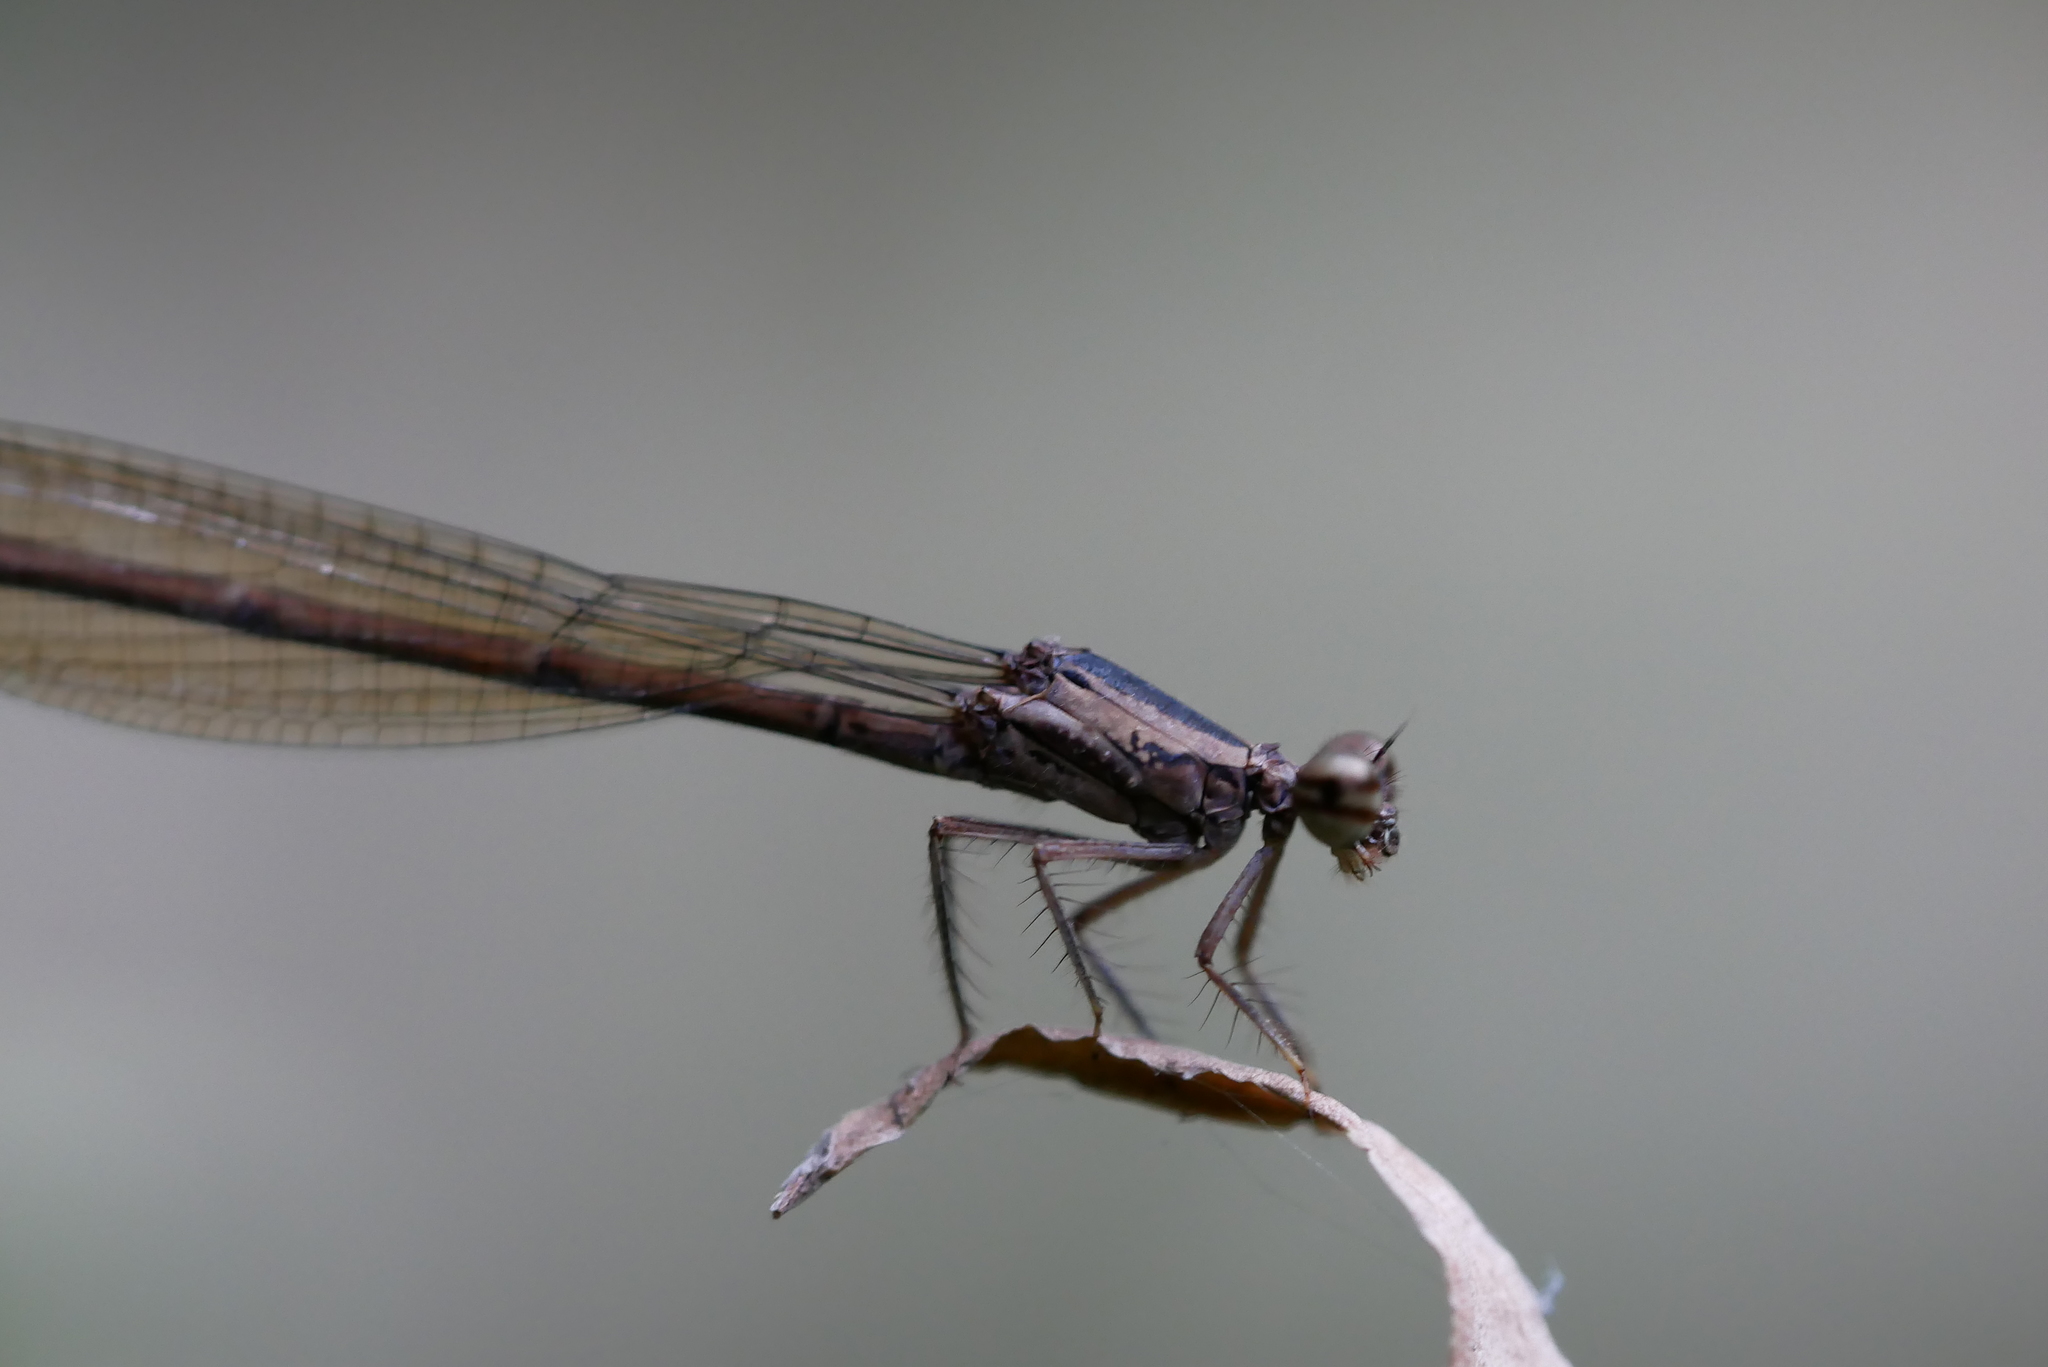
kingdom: Animalia
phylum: Arthropoda
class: Insecta
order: Odonata
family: Platycnemididae
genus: Copera
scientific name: Copera marginipes
